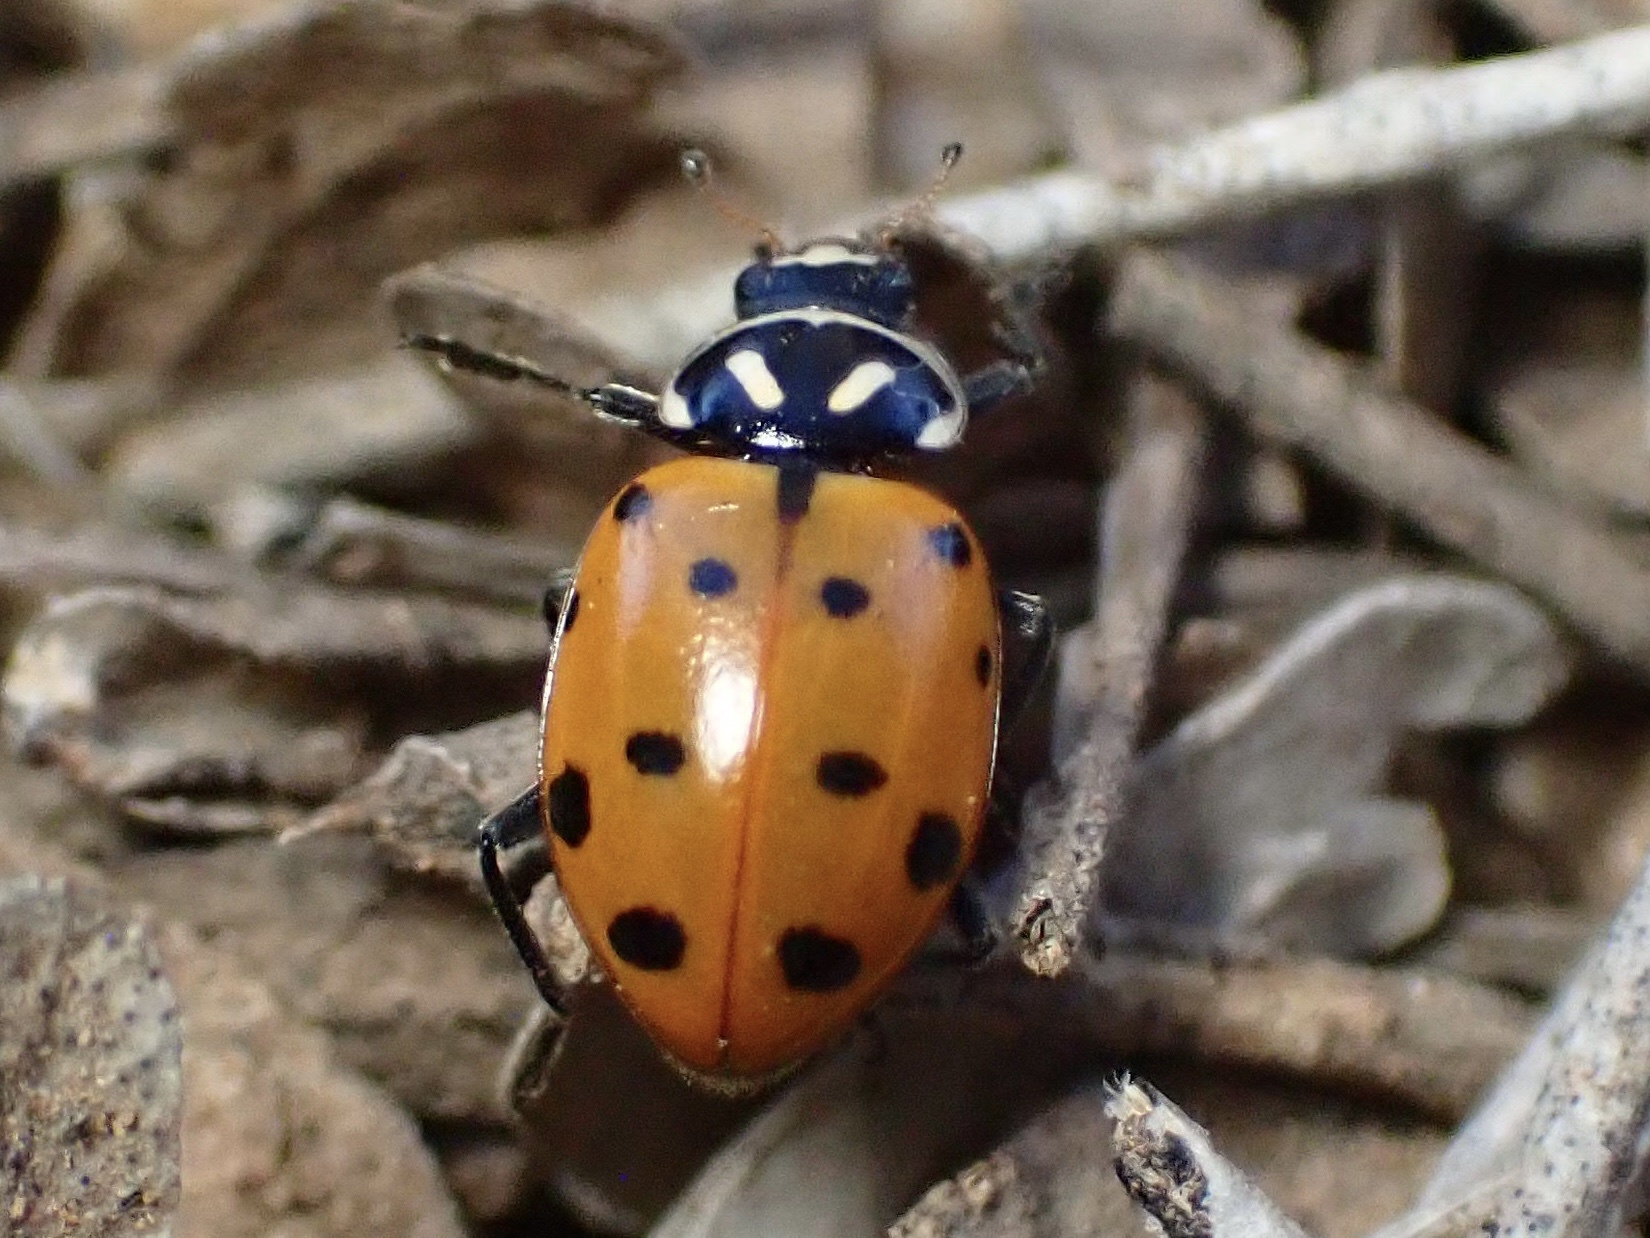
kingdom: Animalia
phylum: Arthropoda
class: Insecta
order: Coleoptera
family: Coccinellidae
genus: Hippodamia
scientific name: Hippodamia convergens
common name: Convergent lady beetle
